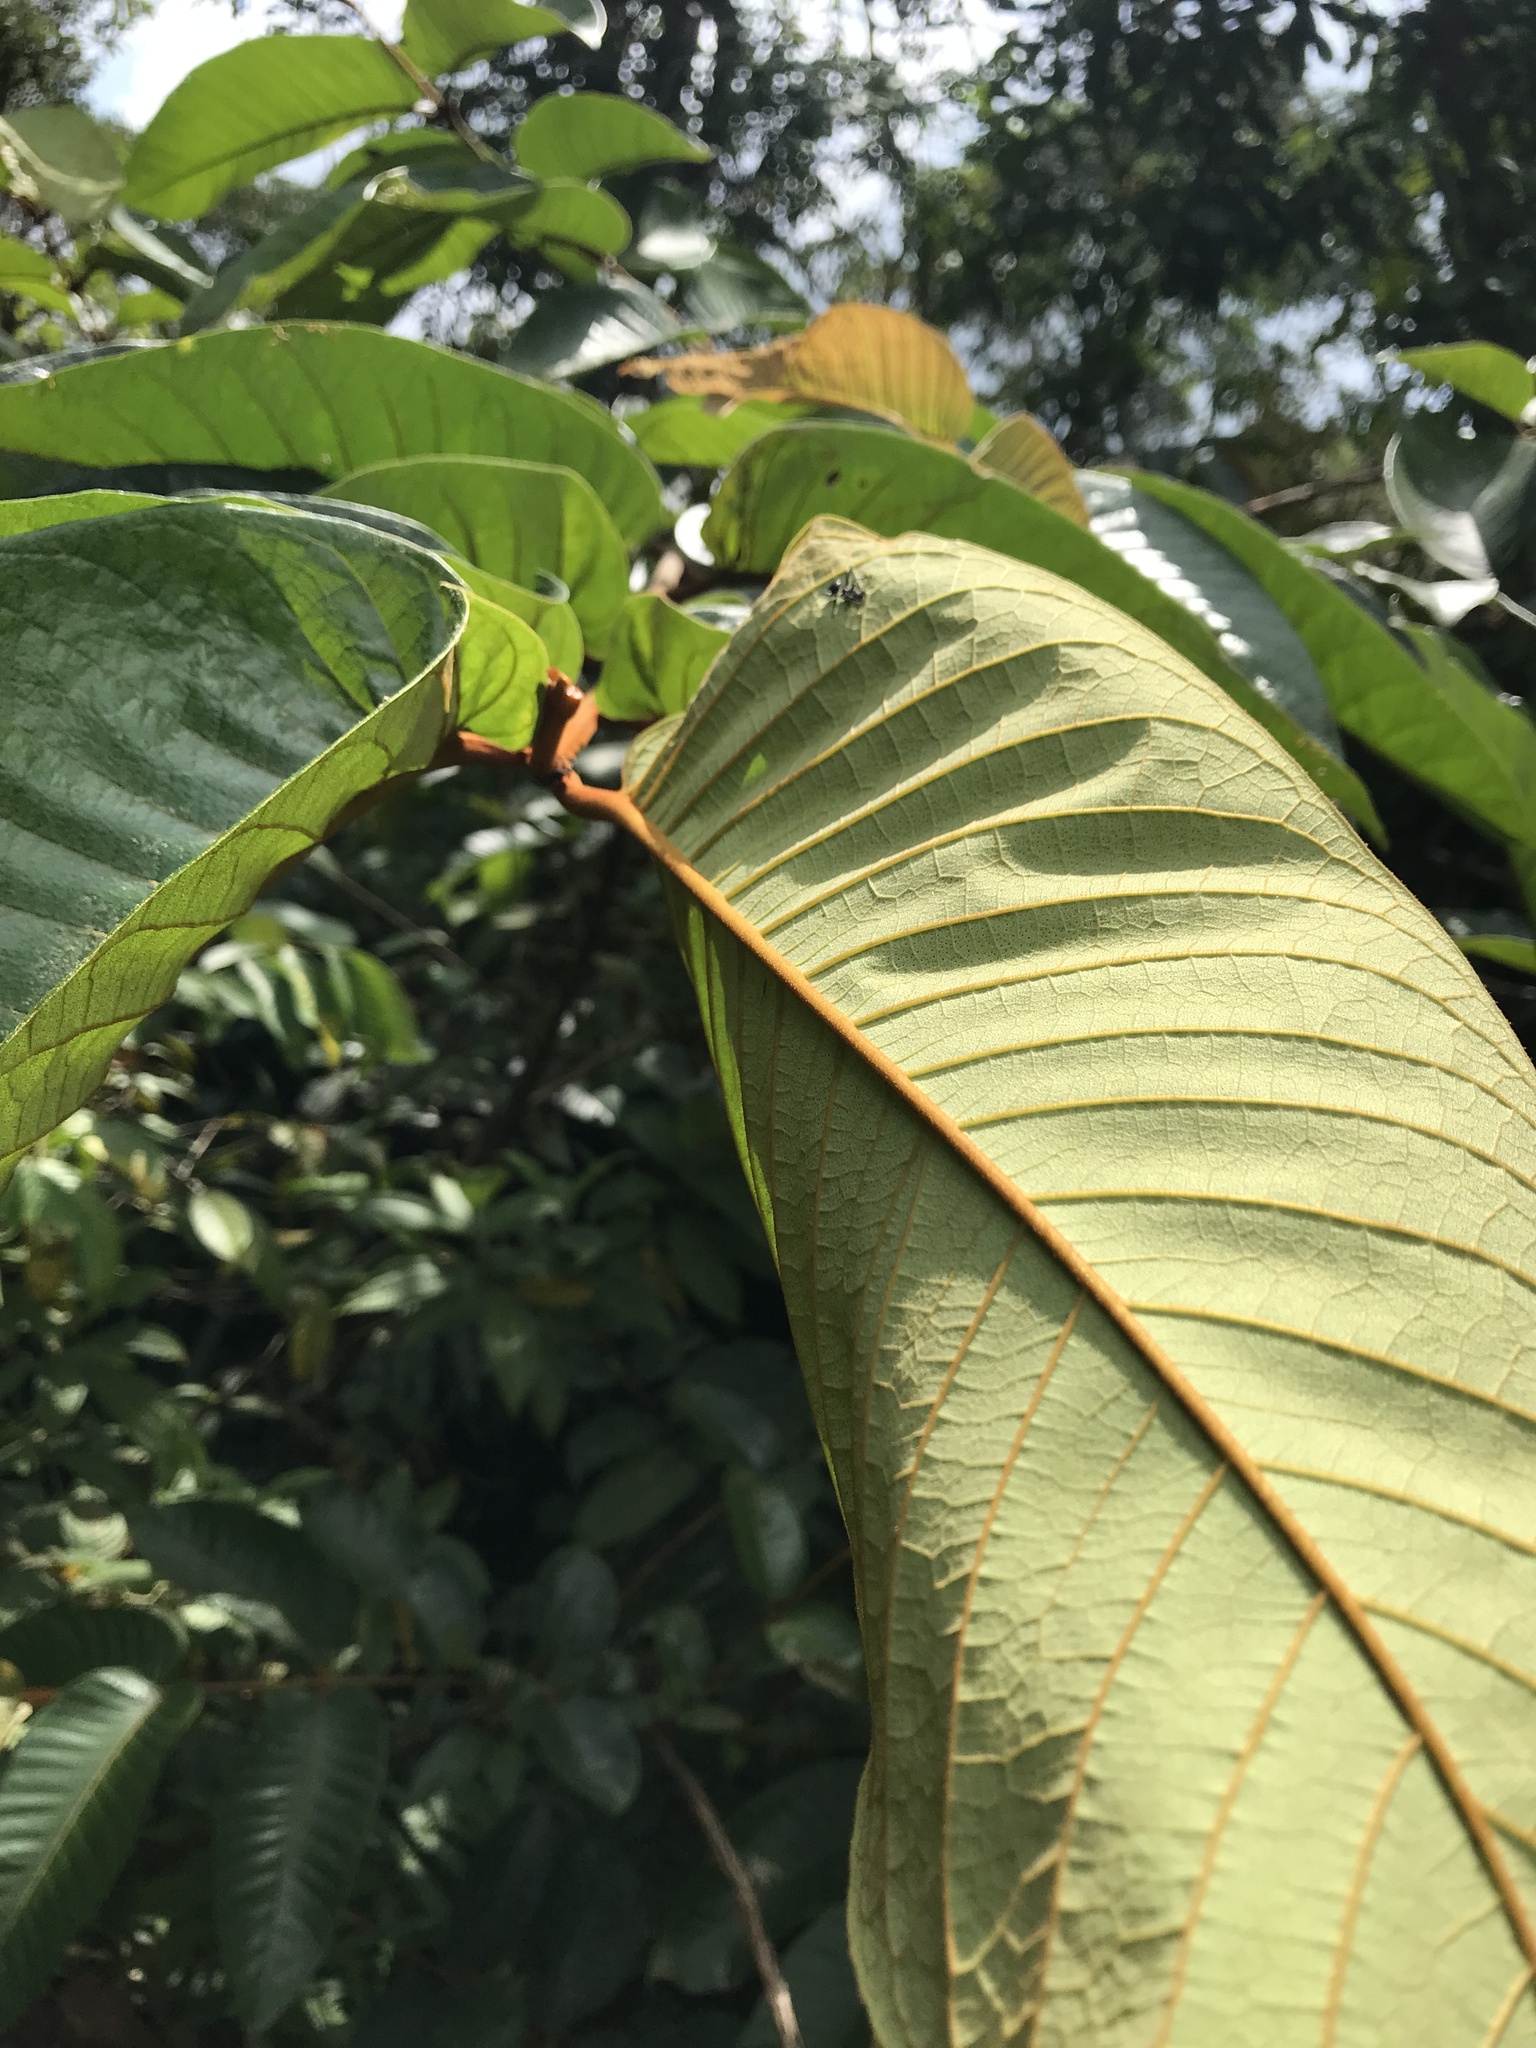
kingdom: Plantae
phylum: Tracheophyta
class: Magnoliopsida
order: Malpighiales
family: Hypericaceae
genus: Vismia
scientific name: Vismia macrophylla
